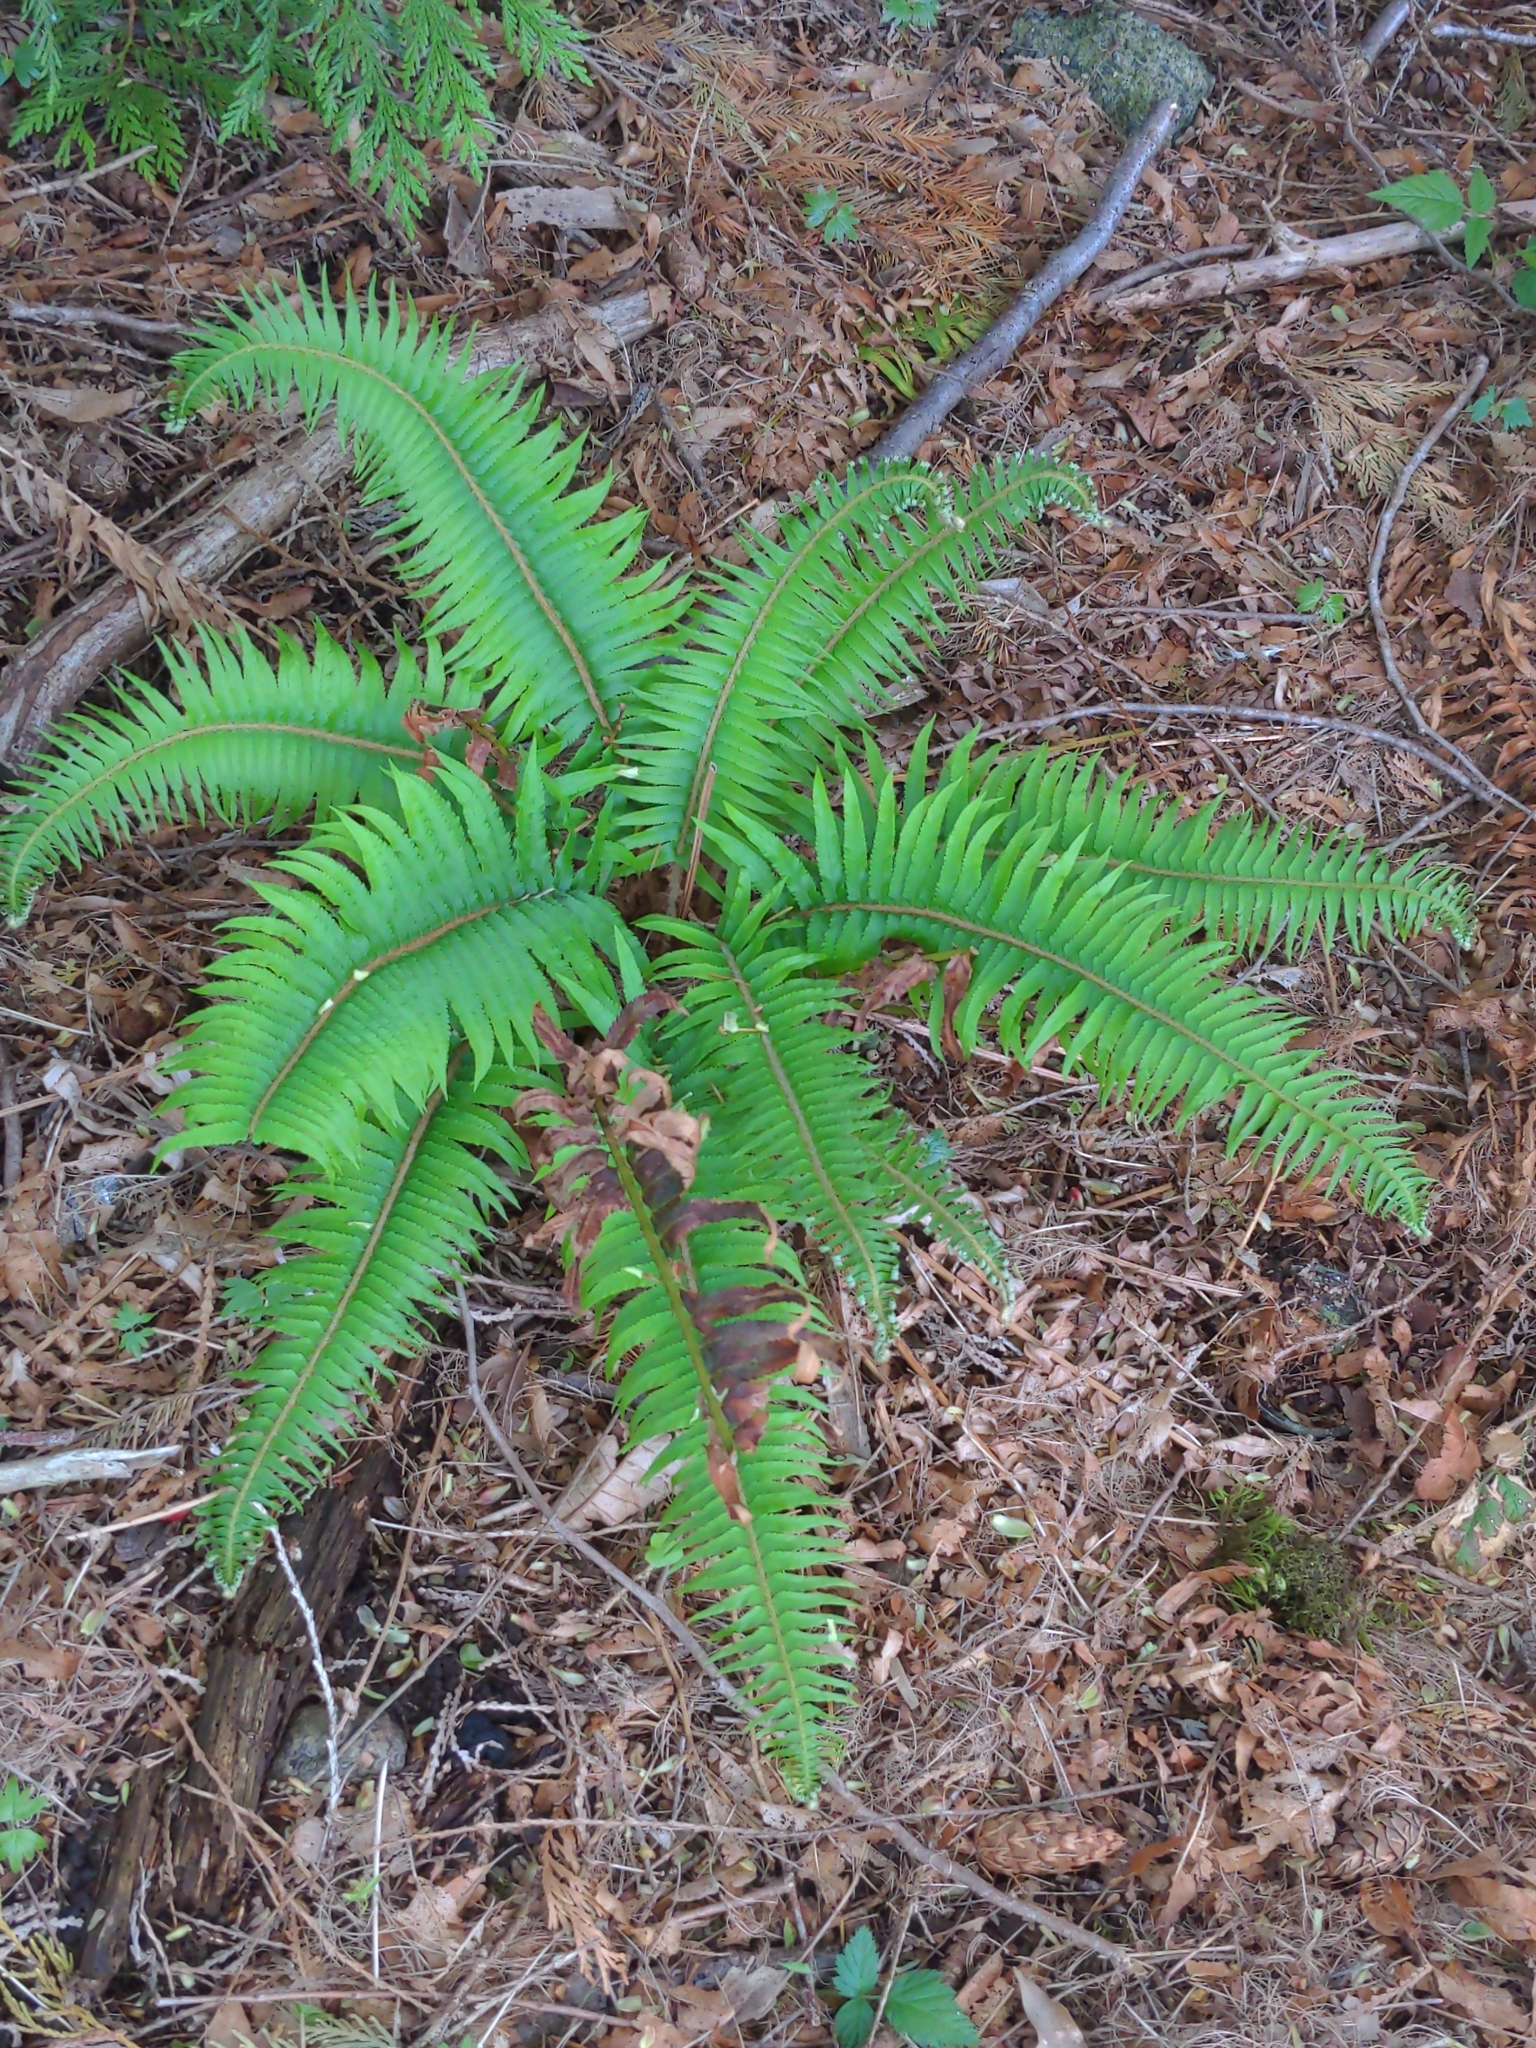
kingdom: Plantae
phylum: Tracheophyta
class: Polypodiopsida
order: Polypodiales
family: Dryopteridaceae
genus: Polystichum
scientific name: Polystichum munitum
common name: Western sword-fern
